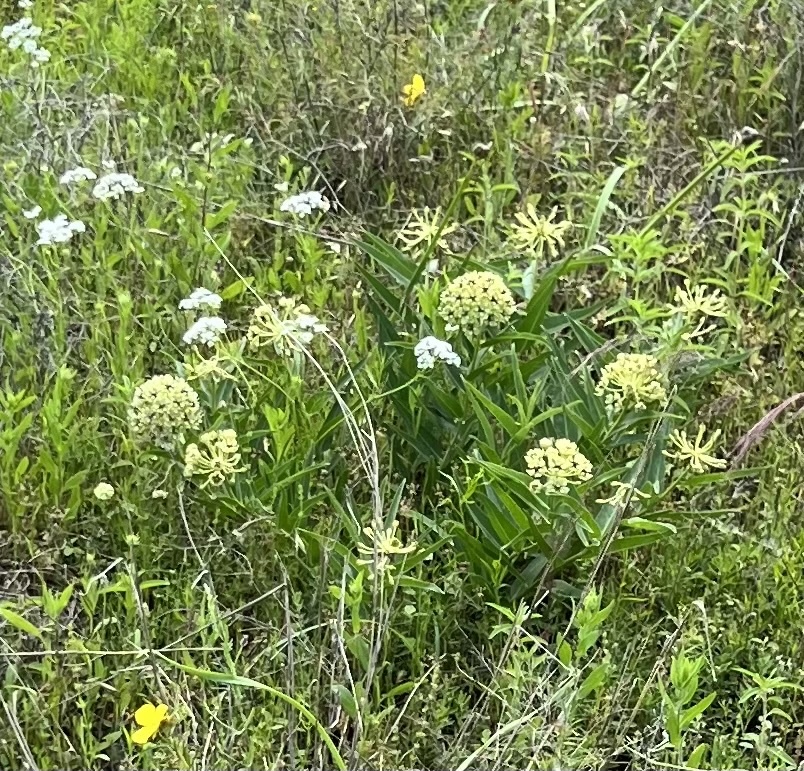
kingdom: Plantae
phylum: Tracheophyta
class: Magnoliopsida
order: Gentianales
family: Apocynaceae
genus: Asclepias
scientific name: Asclepias asperula
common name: Antelope horns
